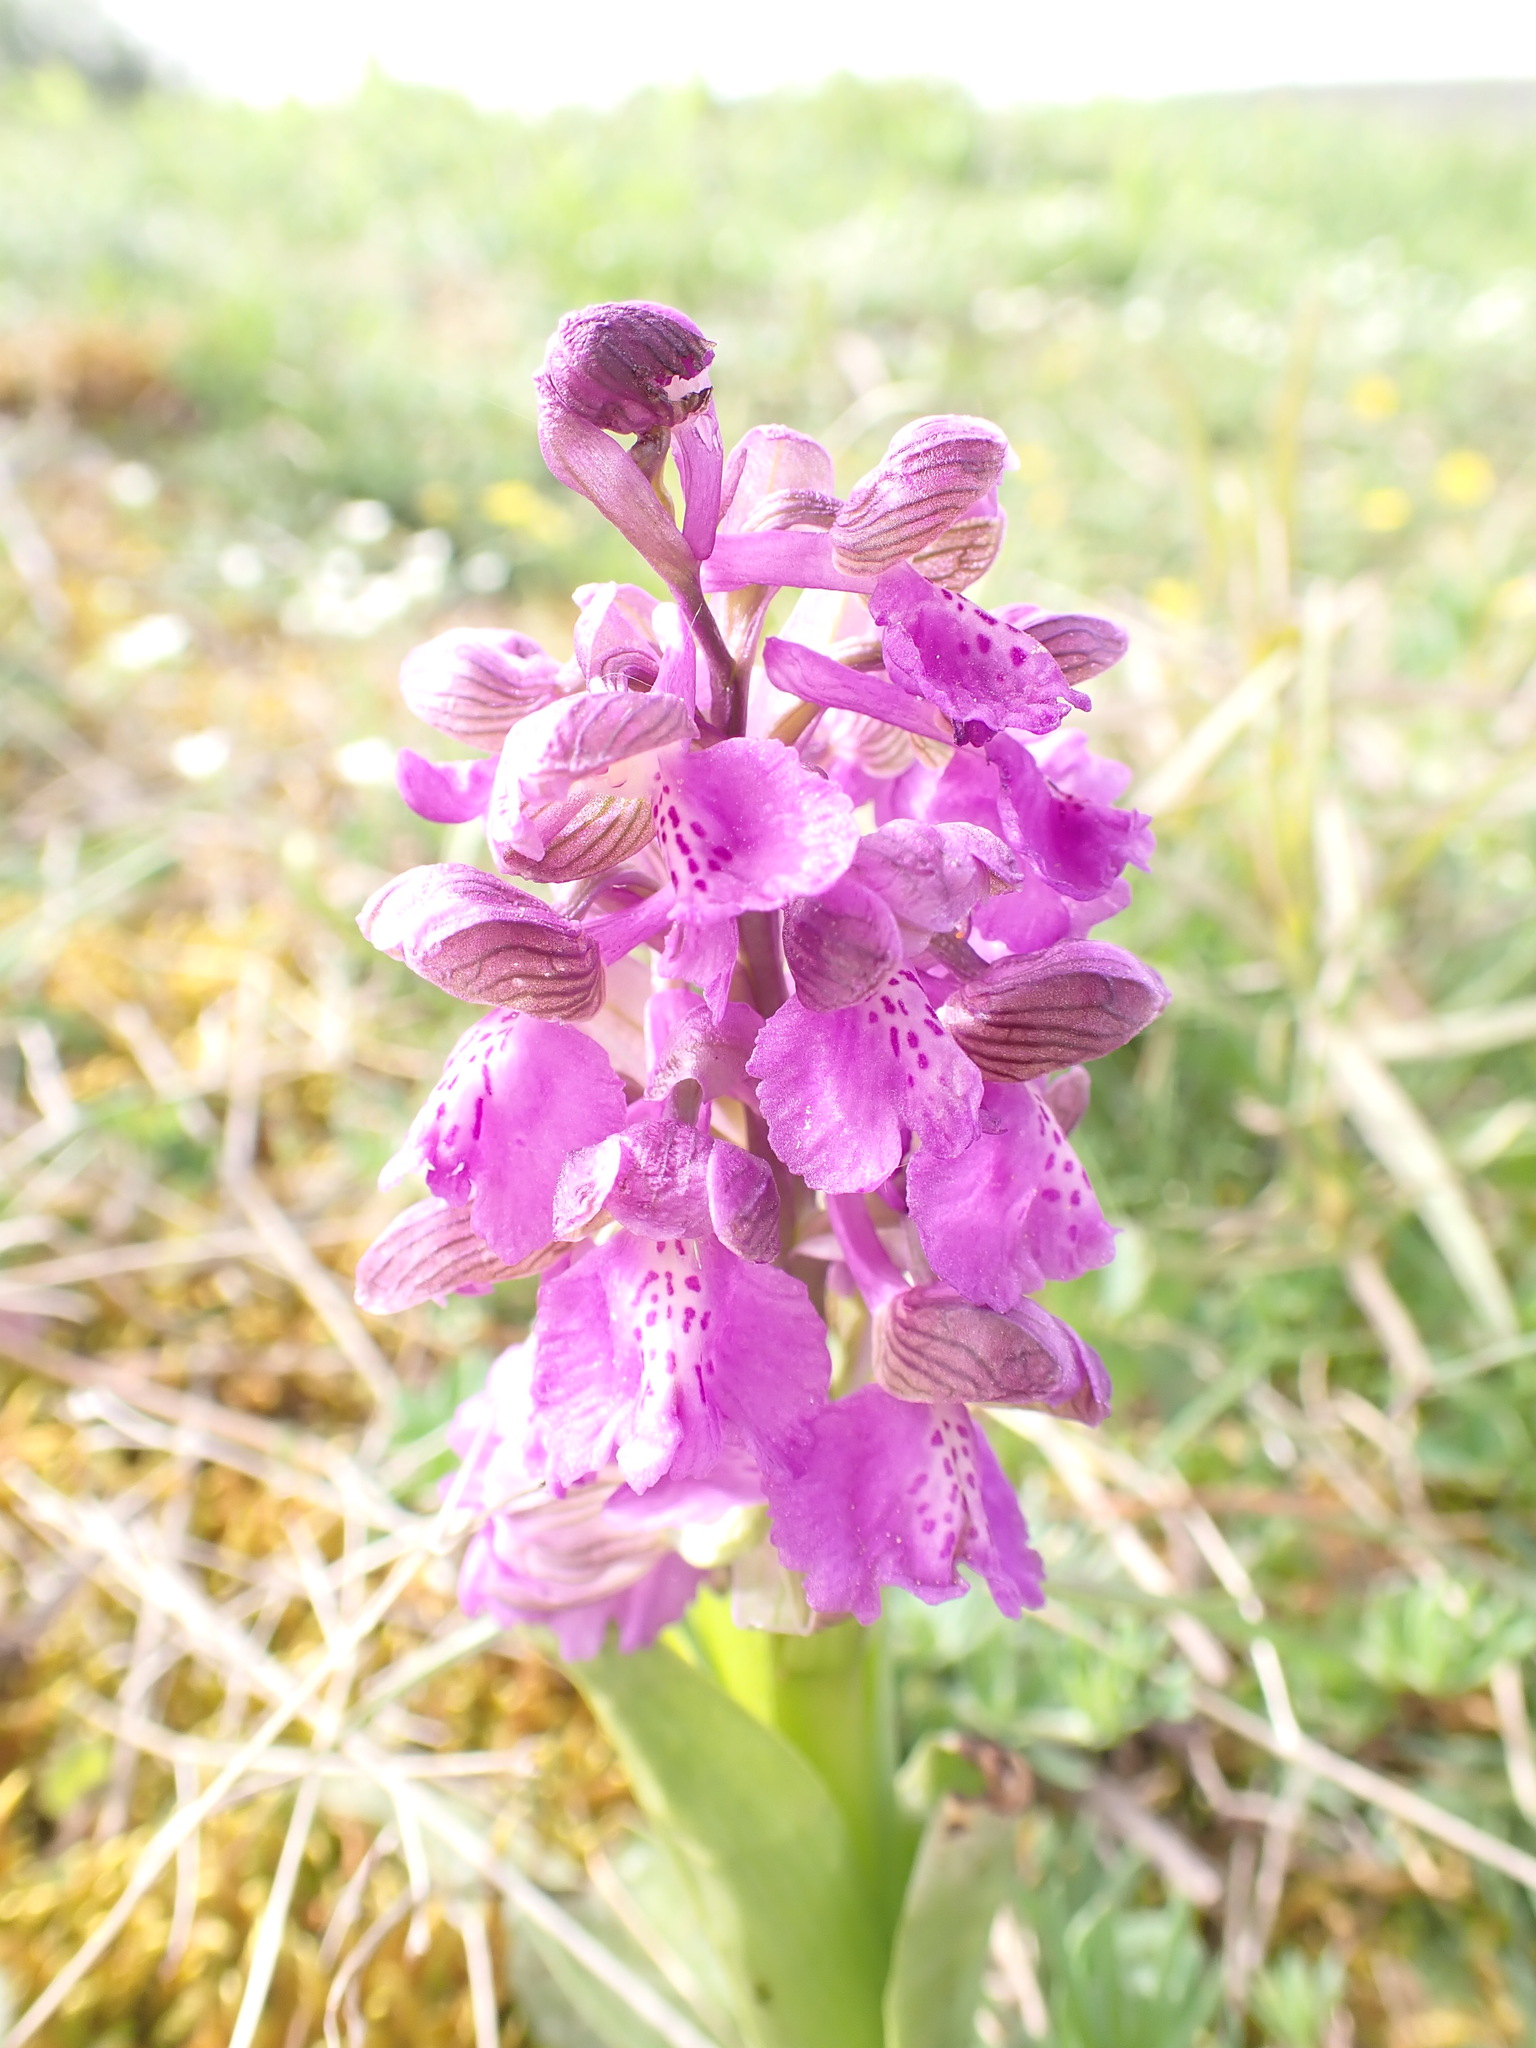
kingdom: Plantae
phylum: Tracheophyta
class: Liliopsida
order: Asparagales
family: Orchidaceae
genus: Anacamptis
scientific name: Anacamptis morio
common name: Green-winged orchid
